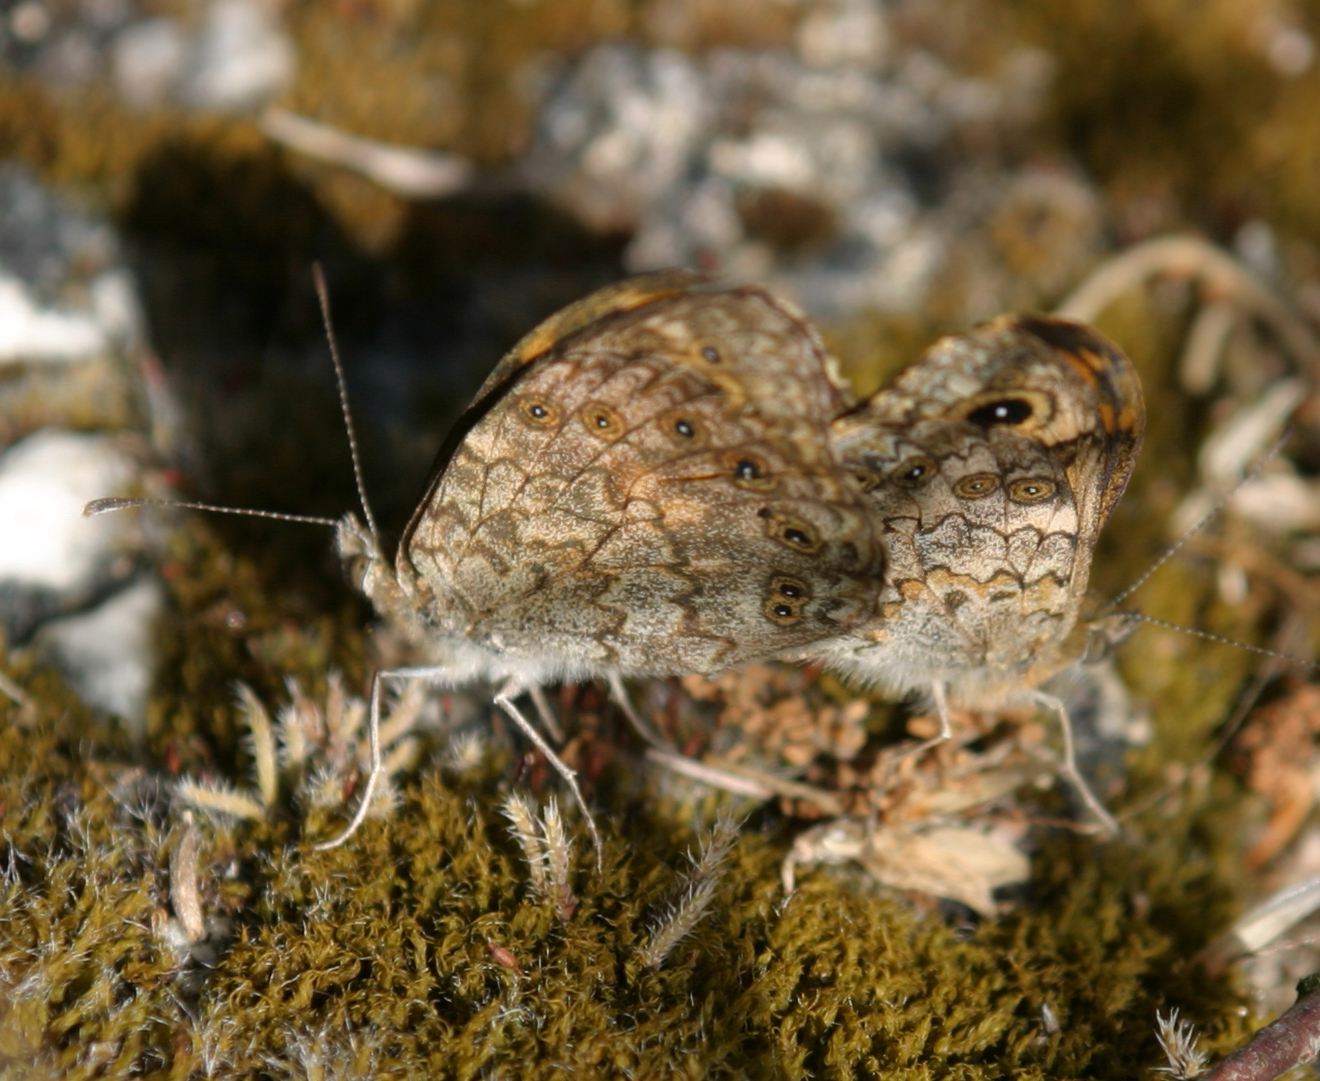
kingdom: Animalia
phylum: Arthropoda
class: Insecta
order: Lepidoptera
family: Nymphalidae
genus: Pararge
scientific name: Pararge Lasiommata megera
